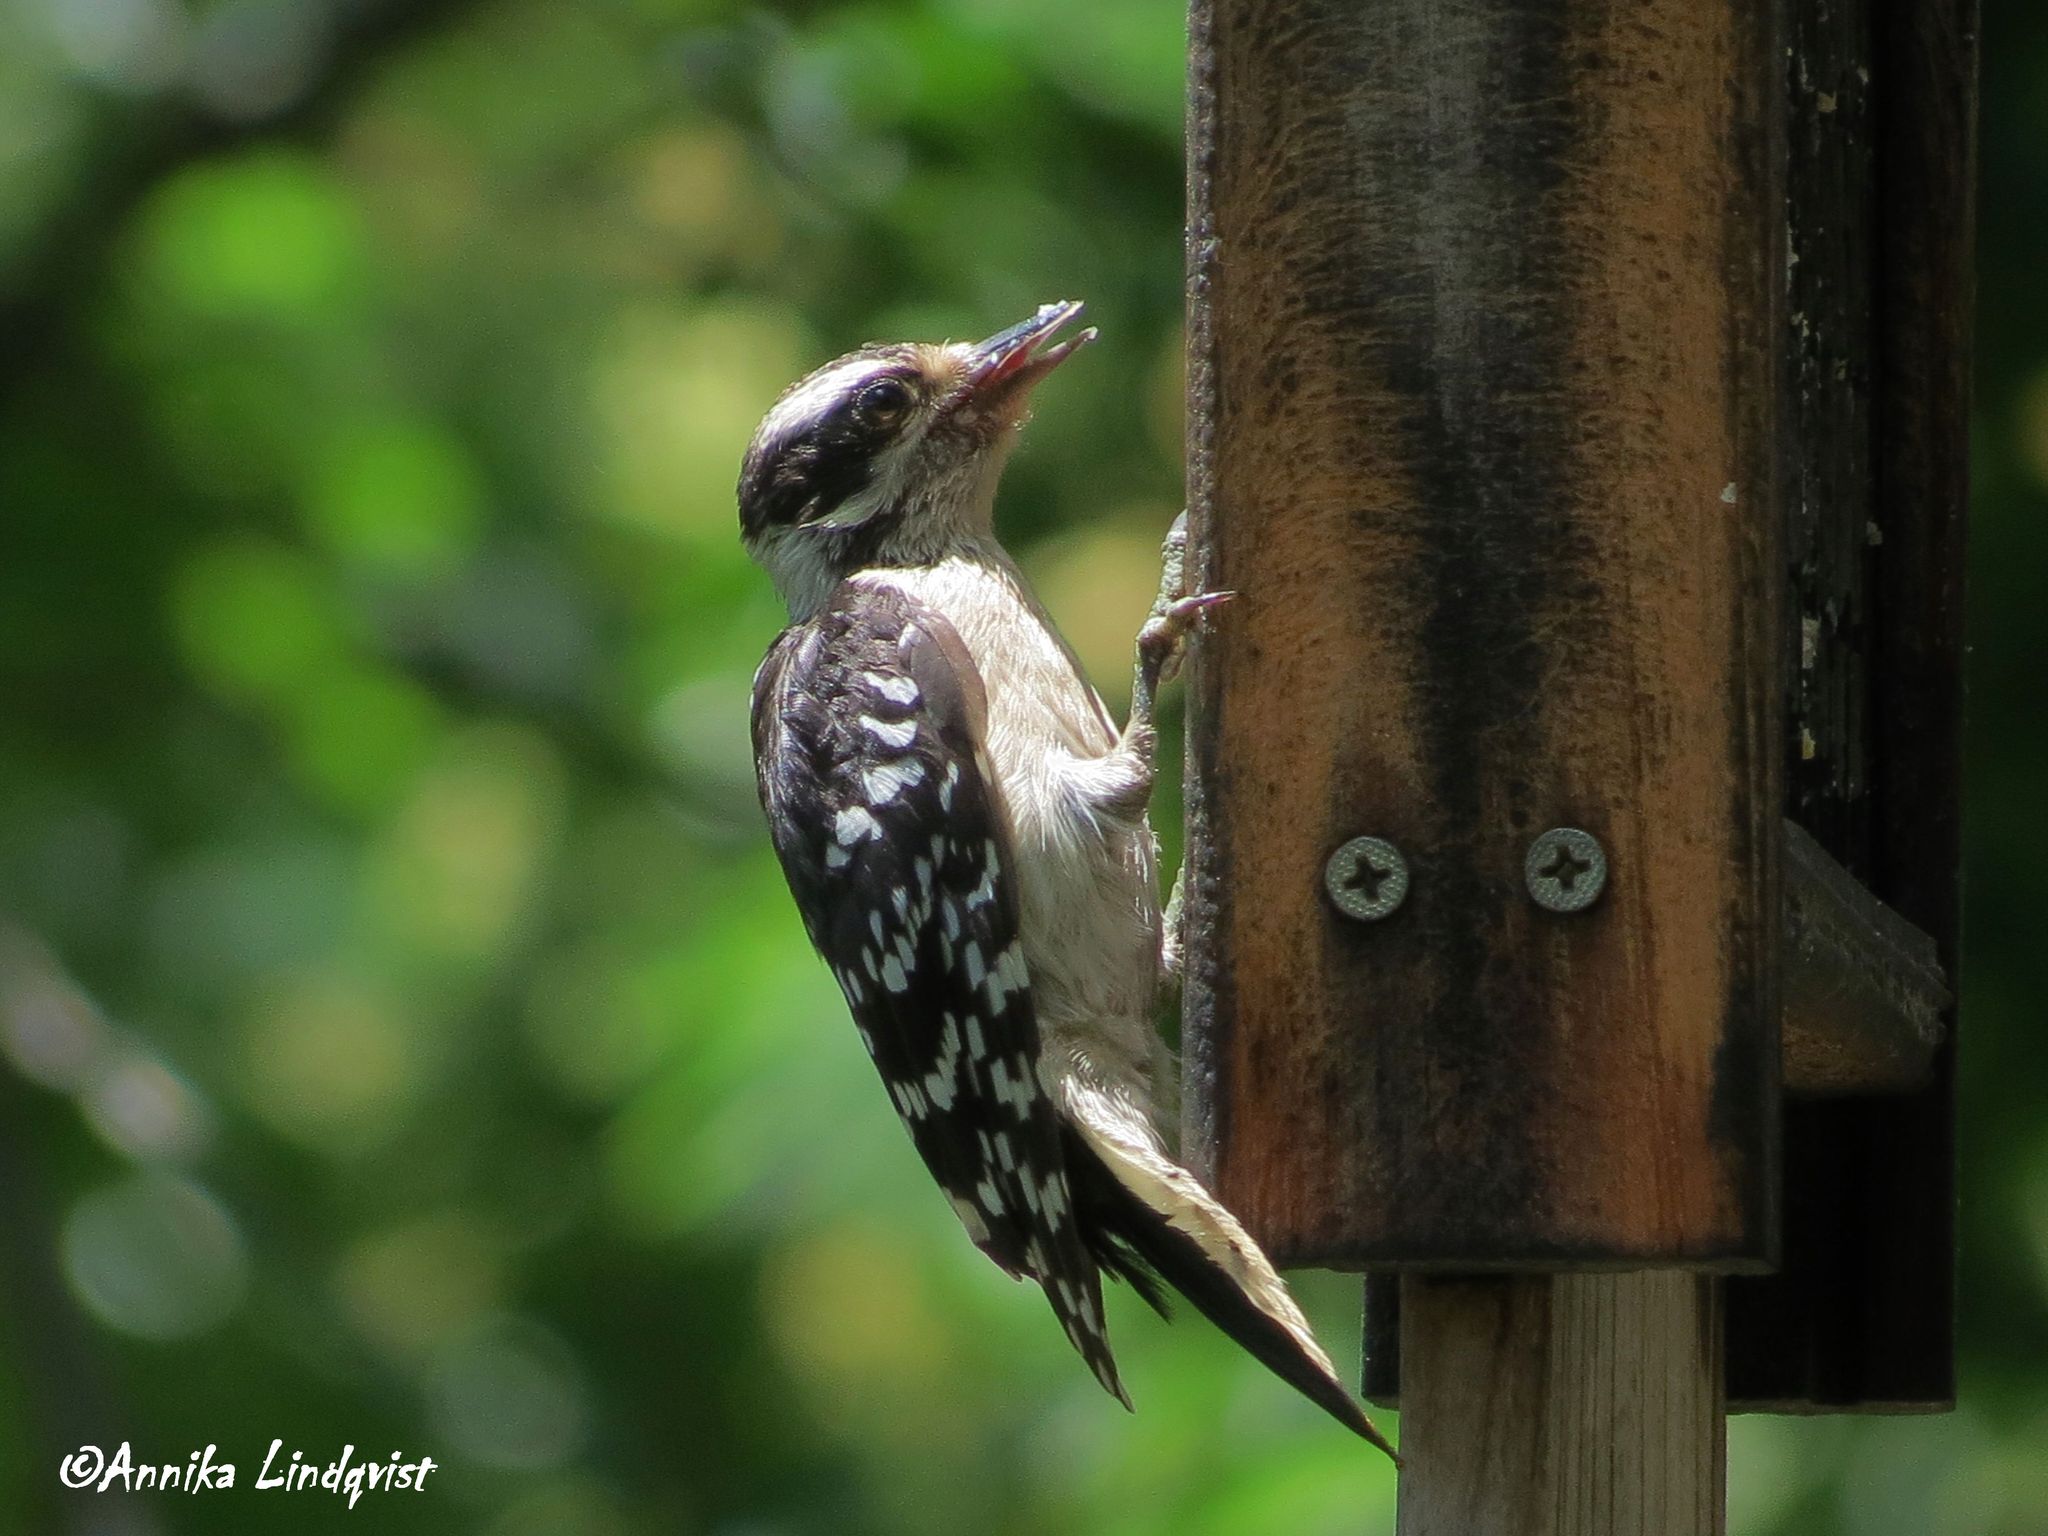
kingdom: Animalia
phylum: Chordata
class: Aves
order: Piciformes
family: Picidae
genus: Dryobates
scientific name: Dryobates pubescens
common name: Downy woodpecker
